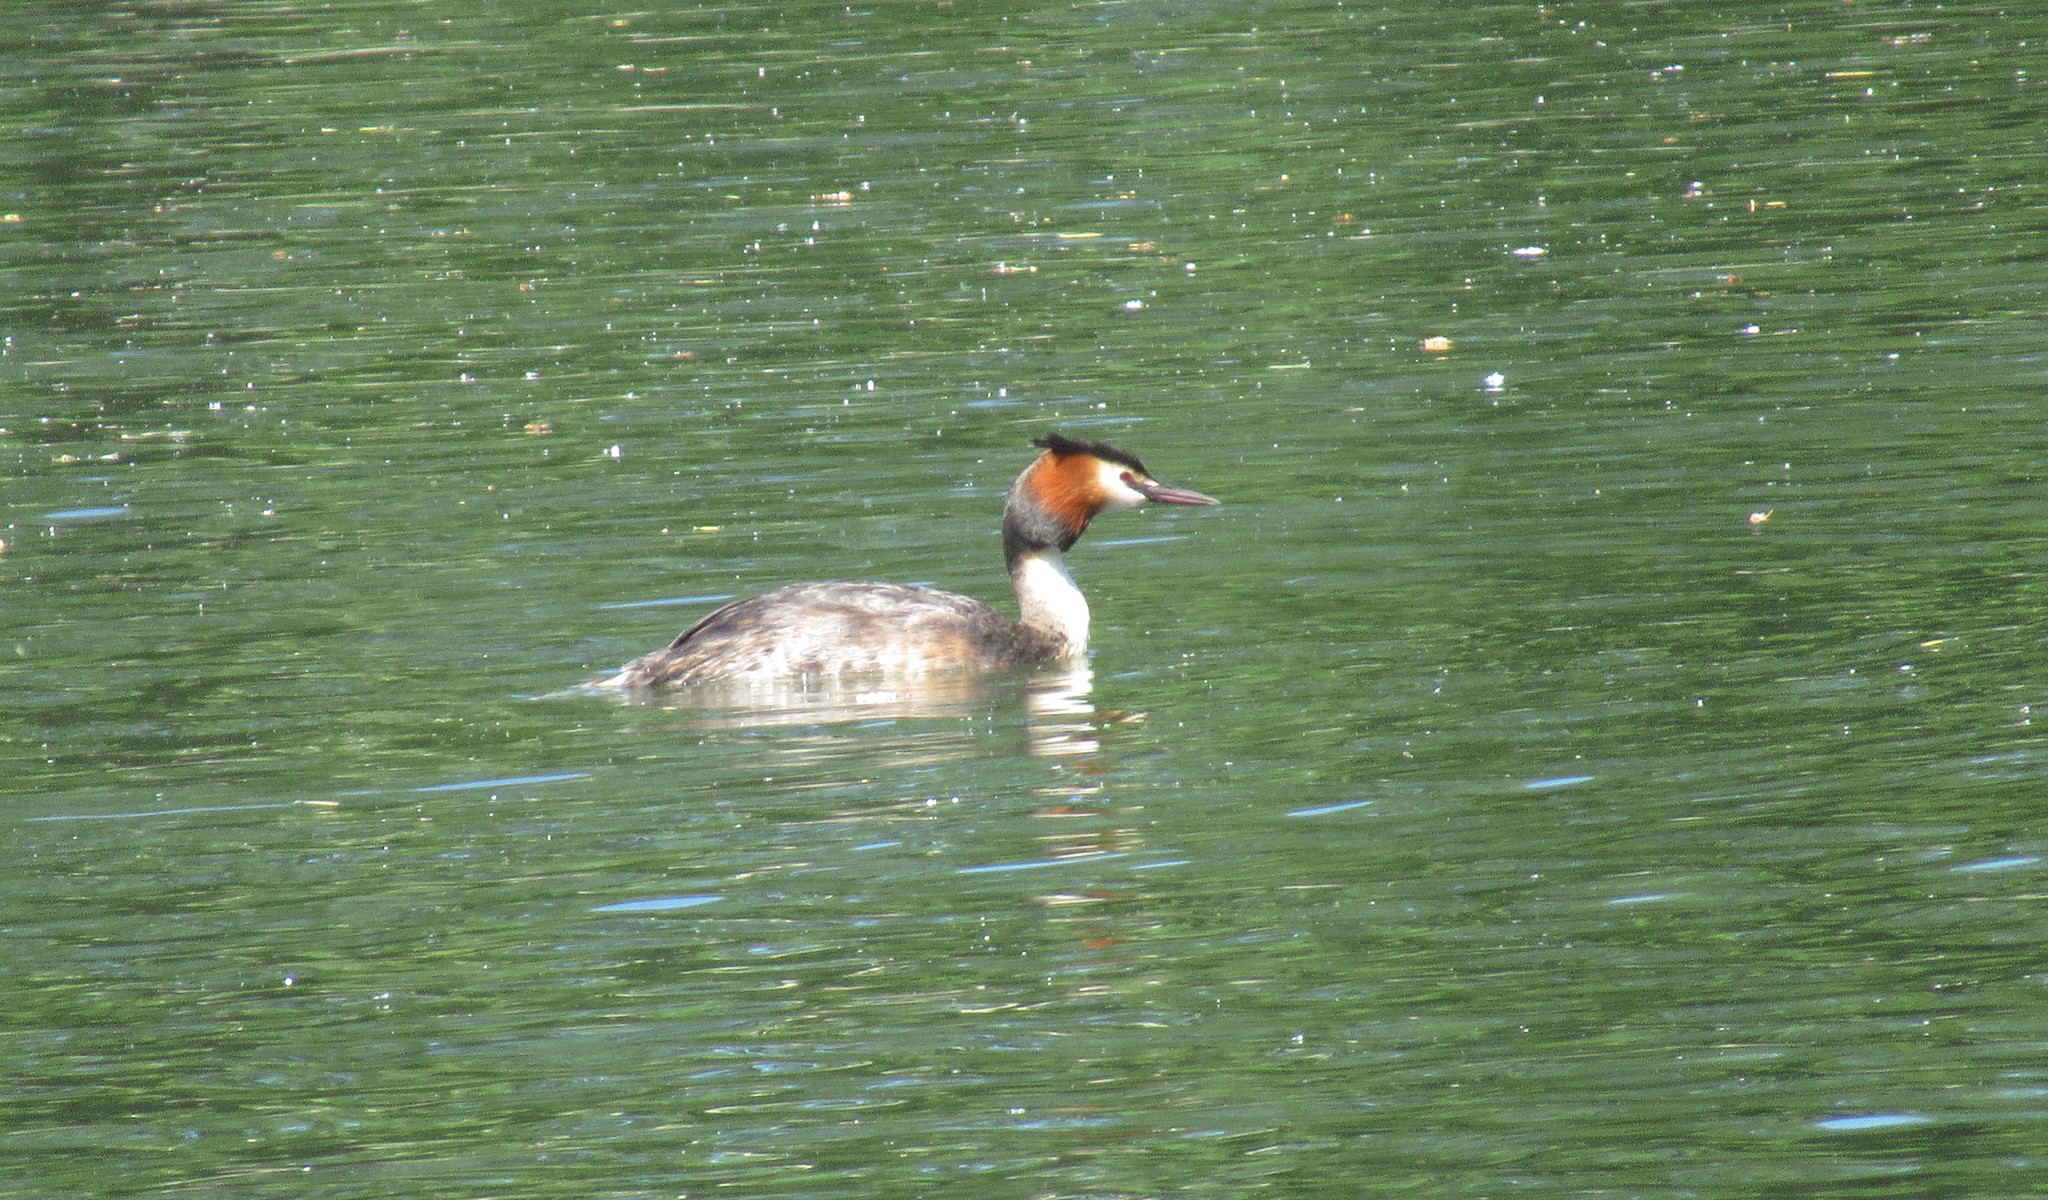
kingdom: Animalia
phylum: Chordata
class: Aves
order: Podicipediformes
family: Podicipedidae
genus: Podiceps
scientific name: Podiceps cristatus
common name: Great crested grebe
